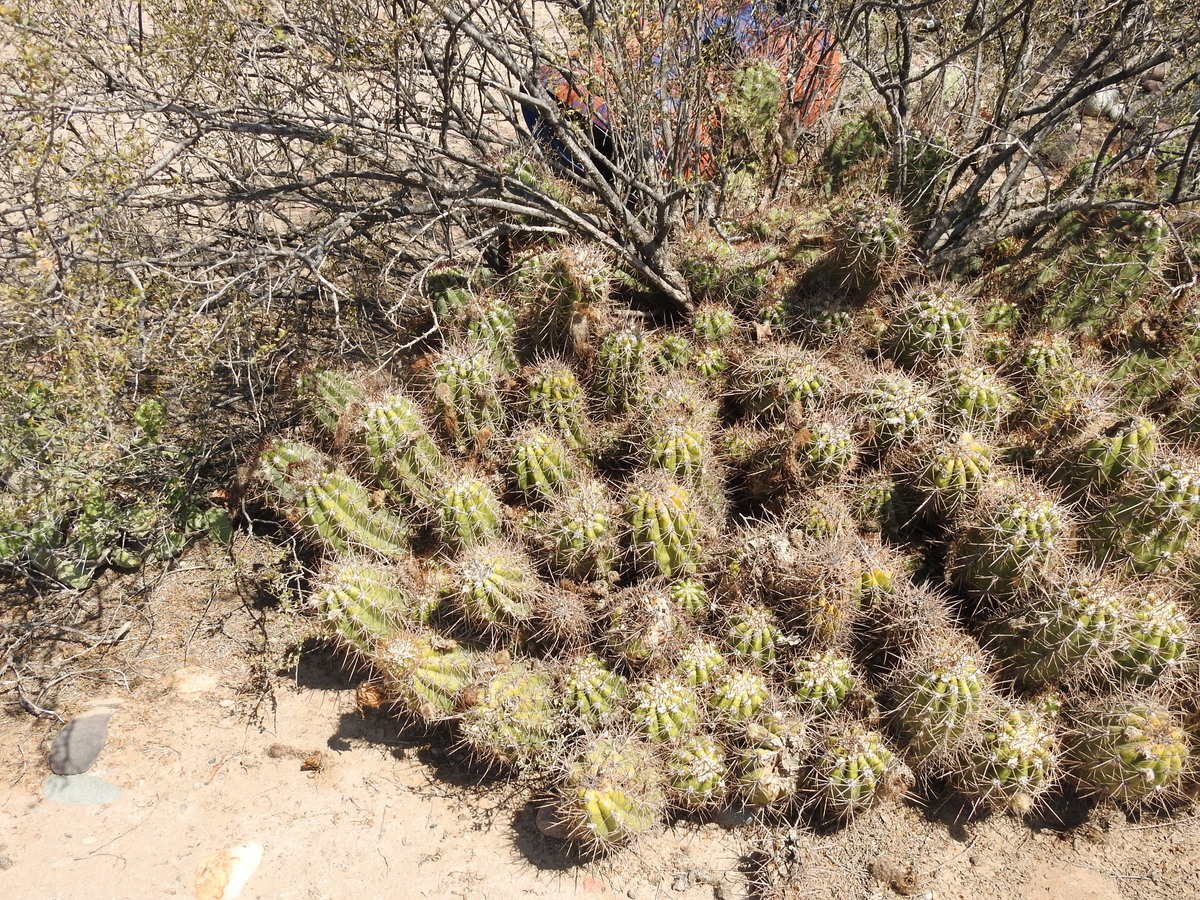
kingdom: Plantae
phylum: Tracheophyta
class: Magnoliopsida
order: Caryophyllales
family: Cactaceae
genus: Soehrensia
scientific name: Soehrensia candicans
